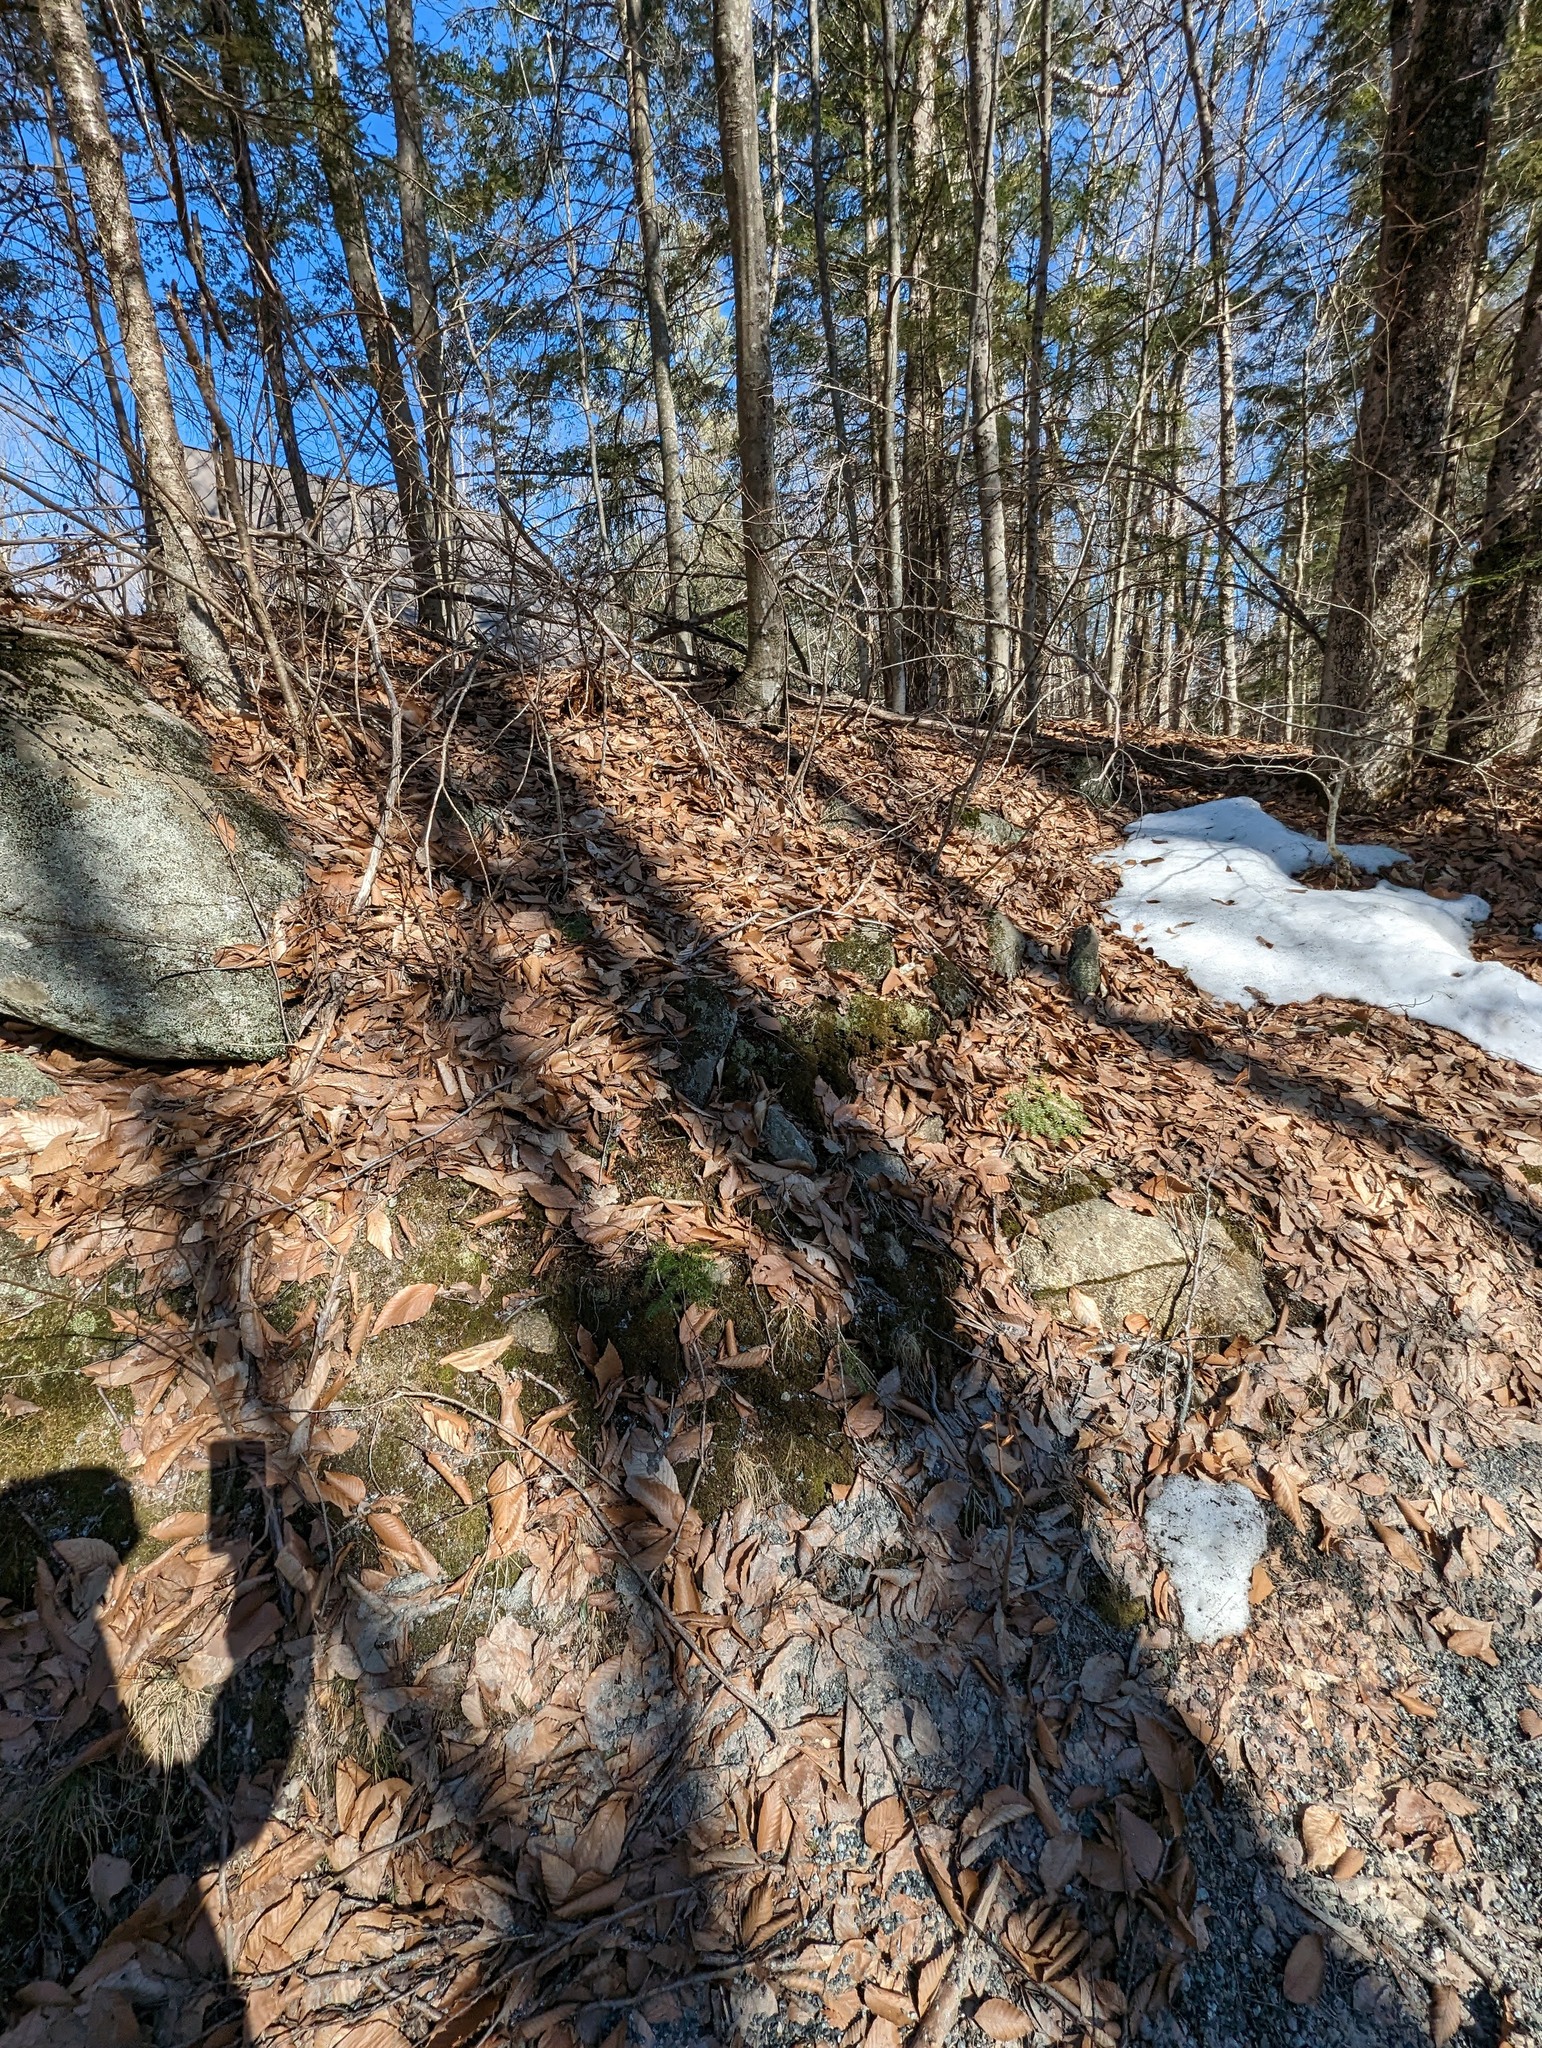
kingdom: Plantae
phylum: Tracheophyta
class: Magnoliopsida
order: Fagales
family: Fagaceae
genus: Fagus
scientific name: Fagus grandifolia
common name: American beech
